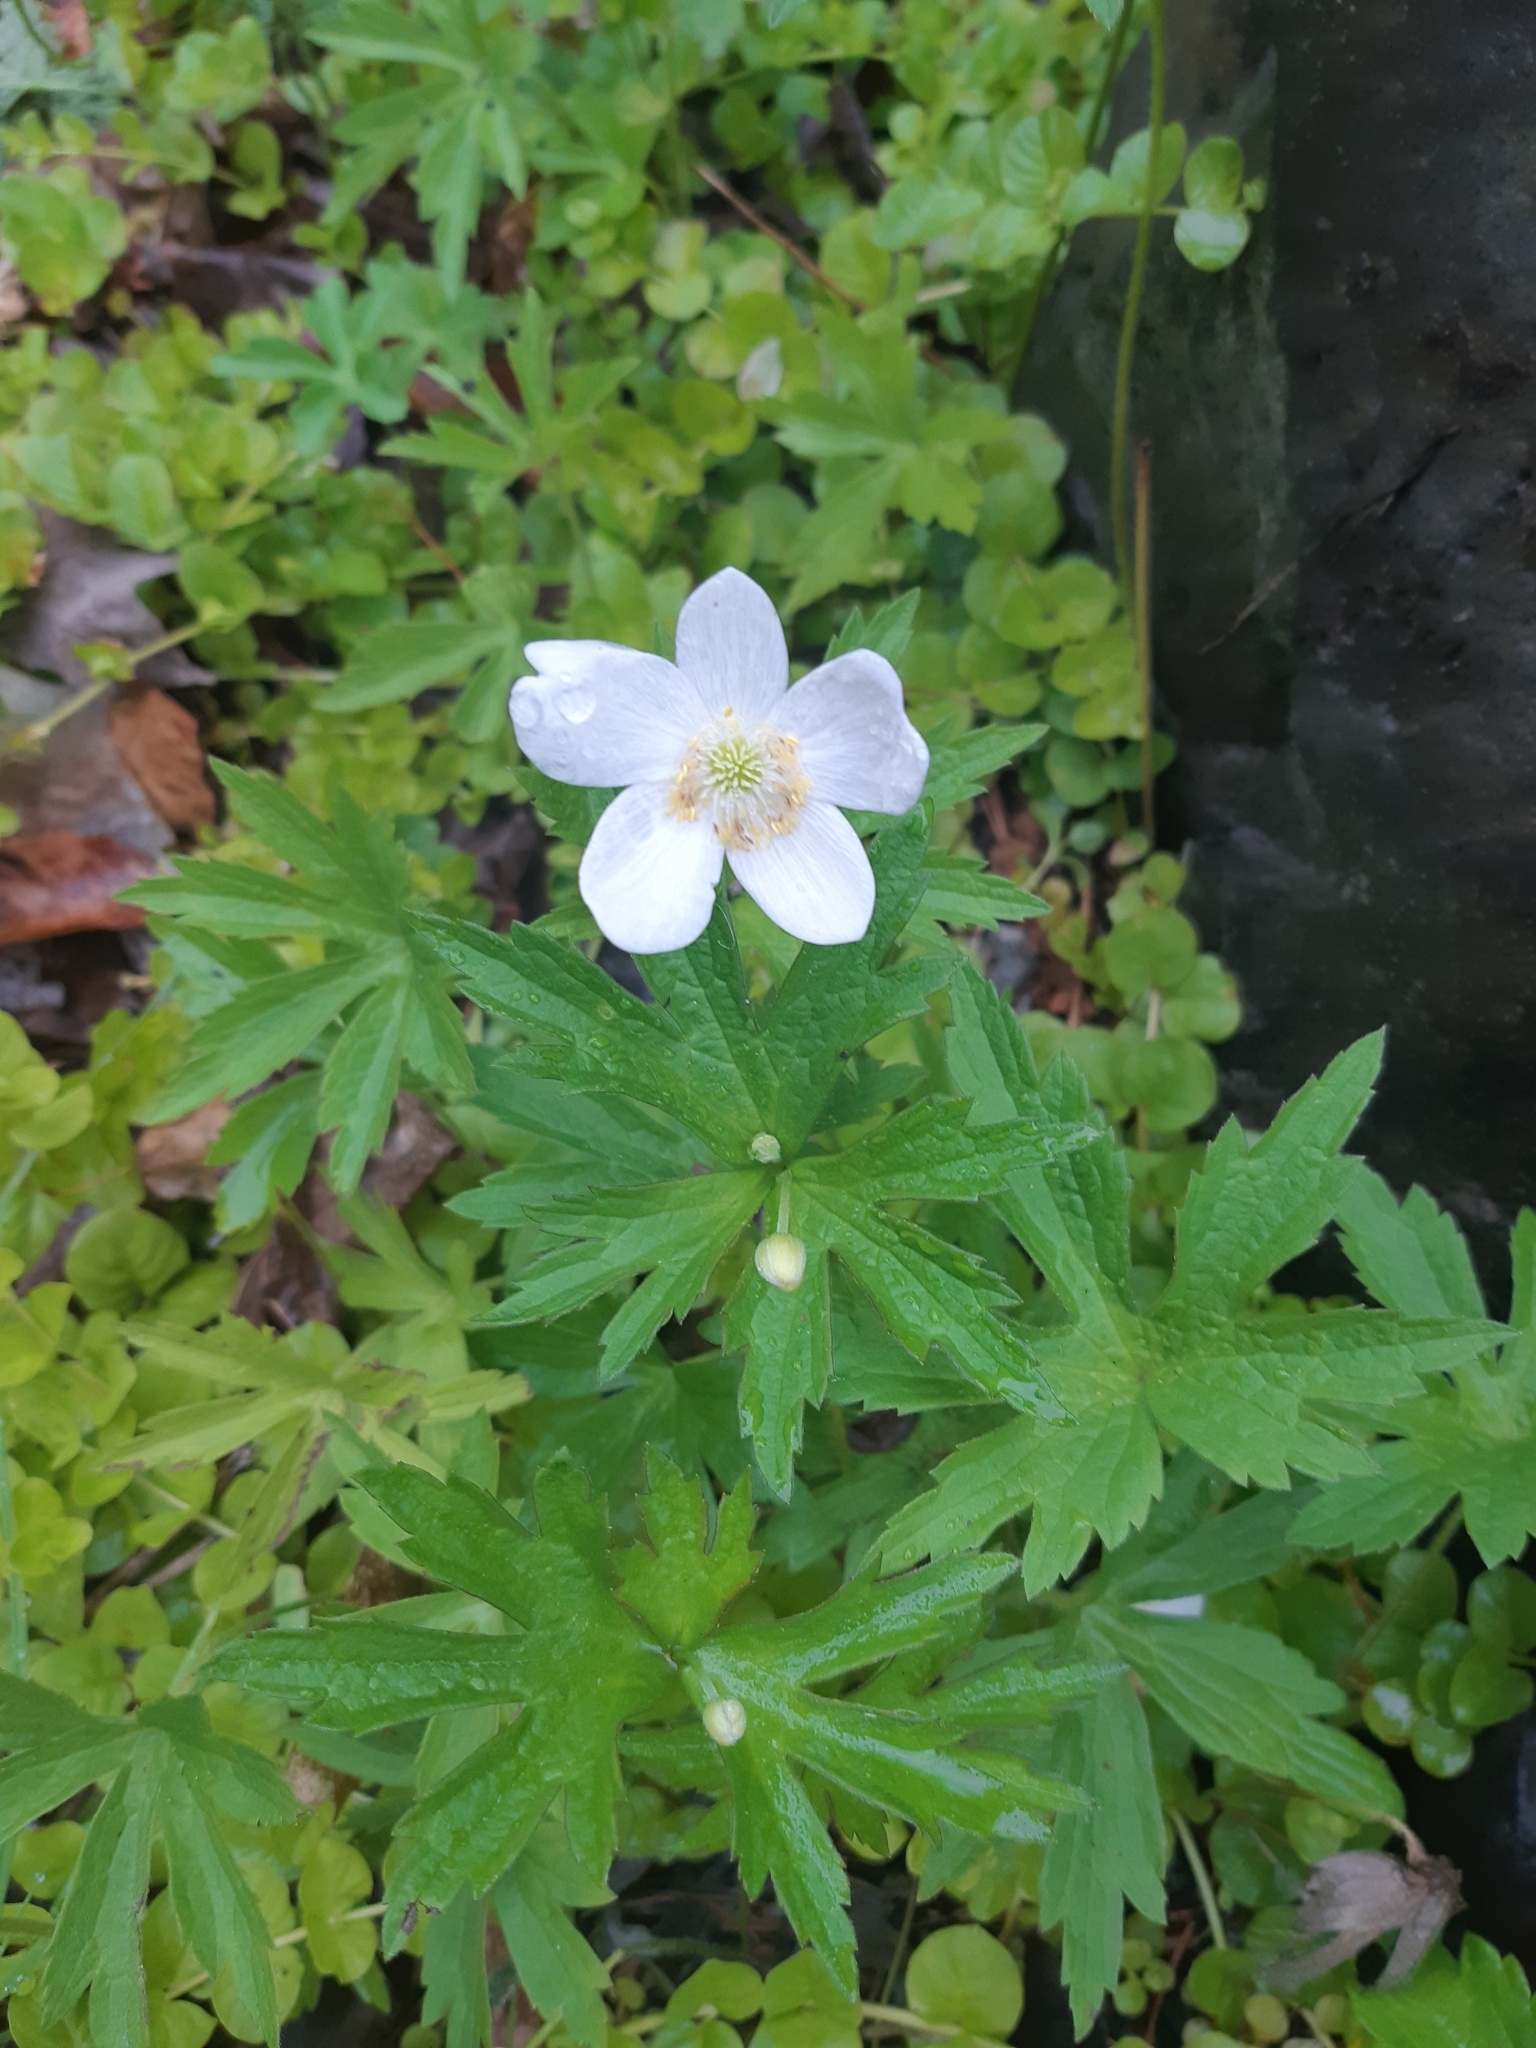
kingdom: Plantae
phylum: Tracheophyta
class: Magnoliopsida
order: Ranunculales
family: Ranunculaceae
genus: Anemonastrum
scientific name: Anemonastrum canadense
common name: Canada anemone
